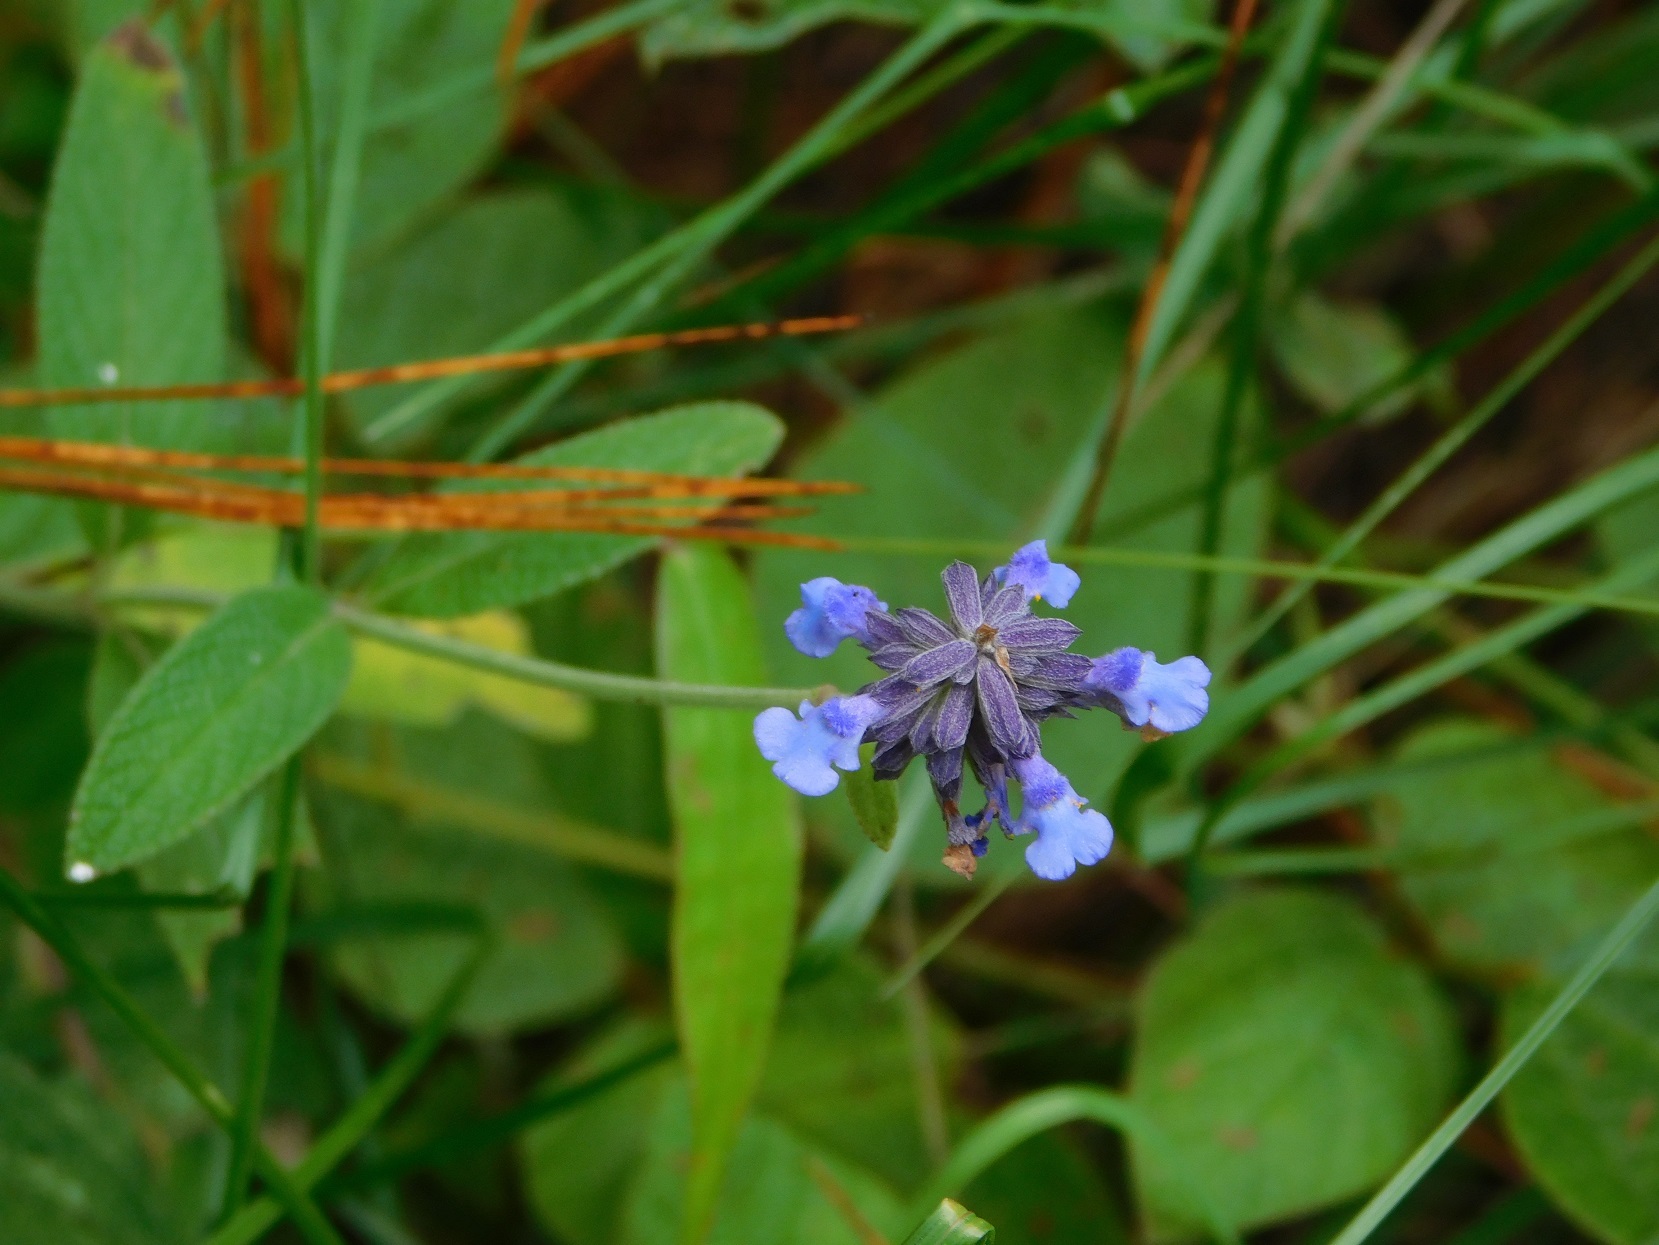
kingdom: Plantae
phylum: Tracheophyta
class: Magnoliopsida
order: Lamiales
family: Lamiaceae
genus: Salvia
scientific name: Salvia lavanduloides
